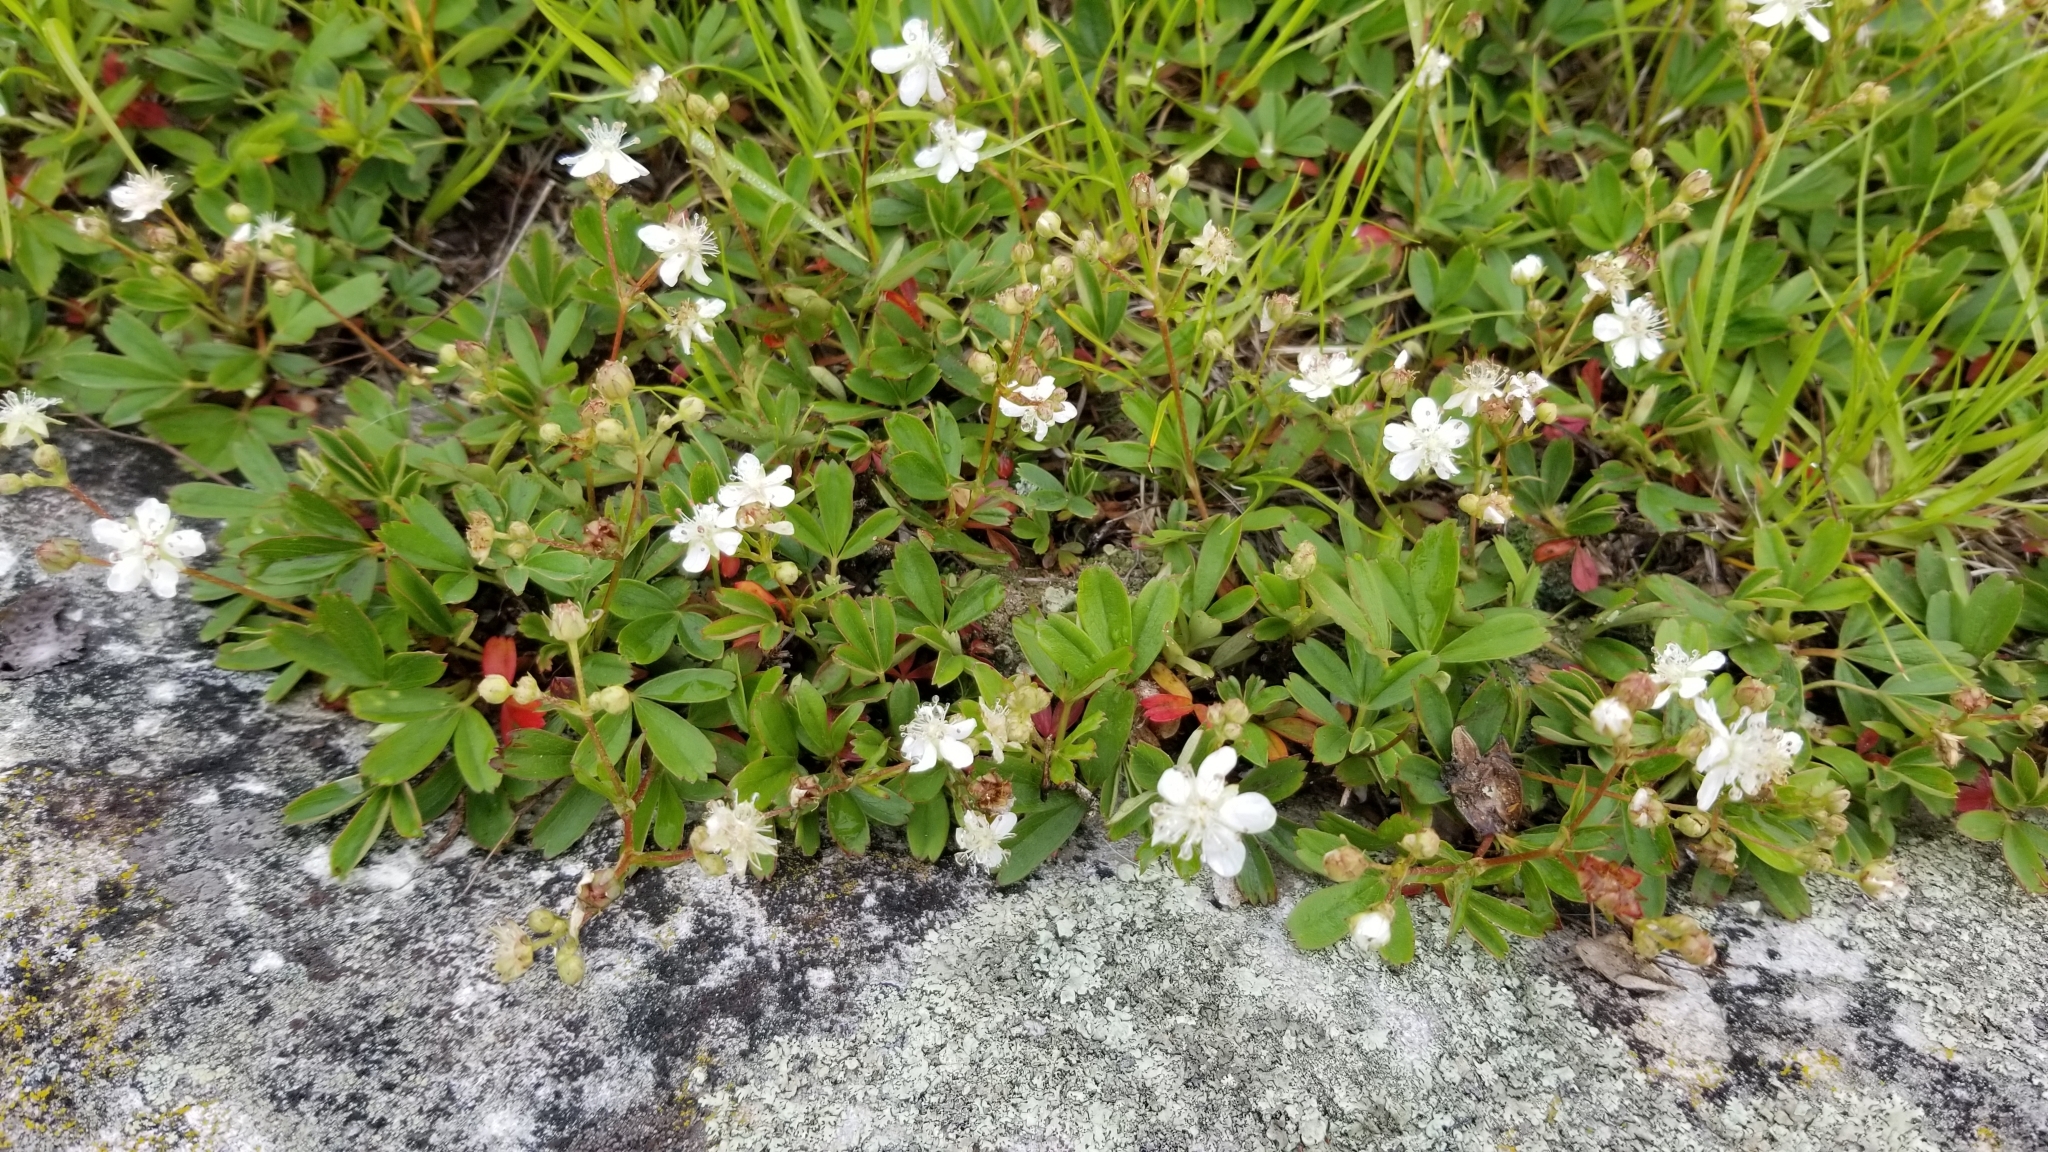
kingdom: Plantae
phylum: Tracheophyta
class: Magnoliopsida
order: Rosales
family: Rosaceae
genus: Sibbaldia
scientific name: Sibbaldia tridentata
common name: Three-toothed cinquefoil
